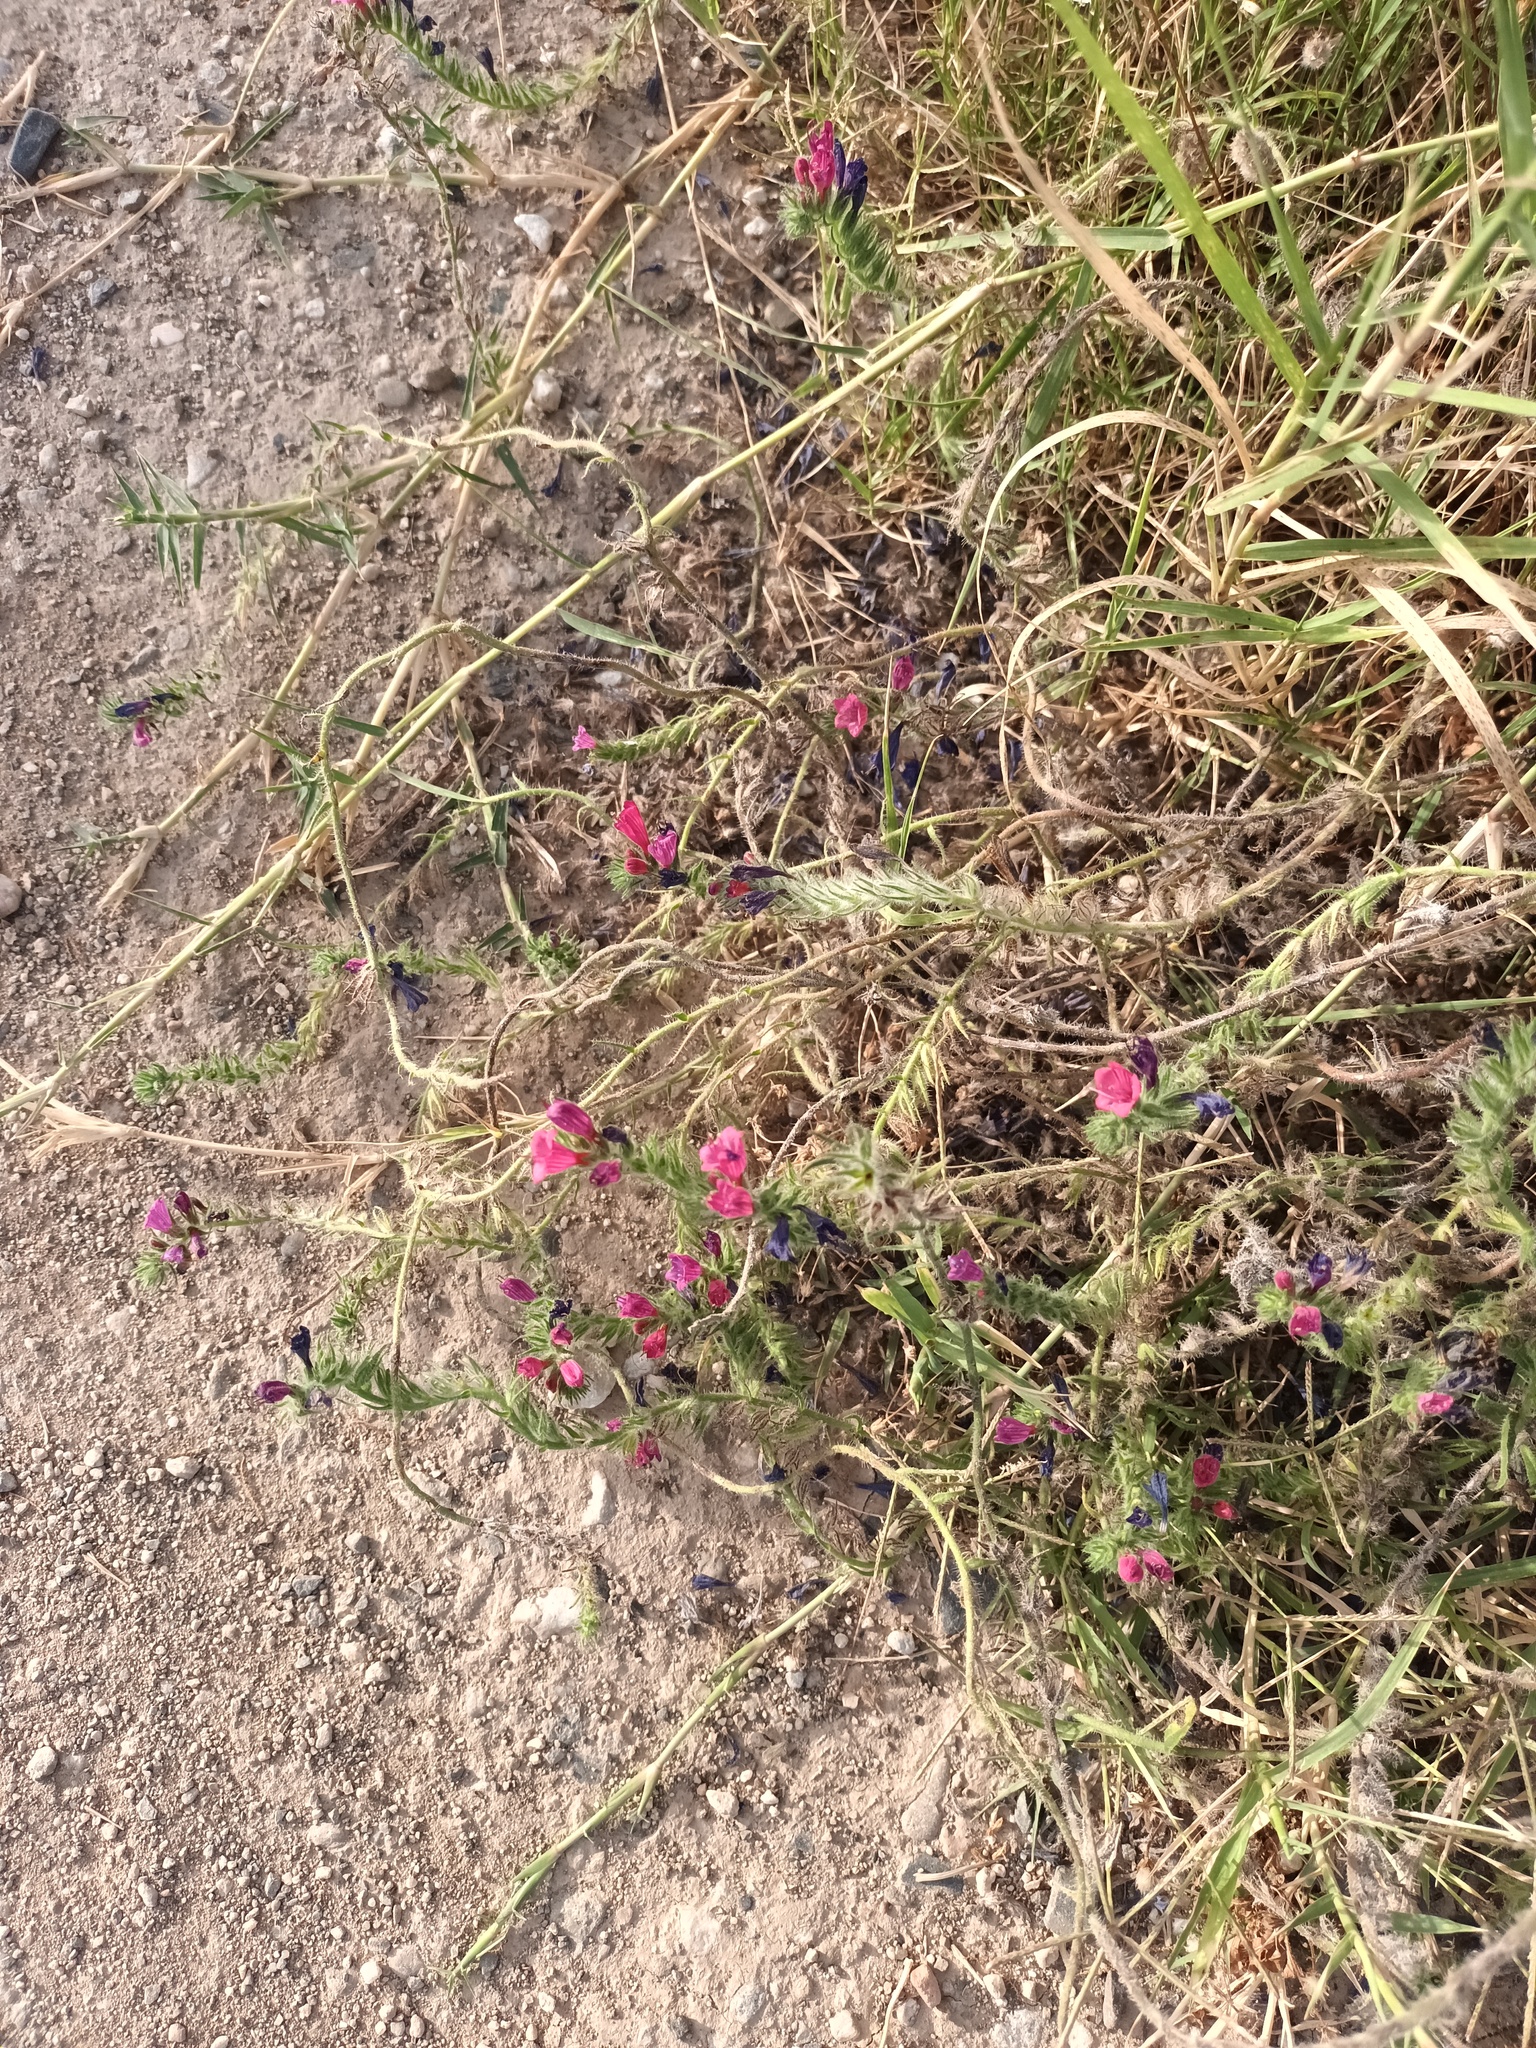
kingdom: Plantae
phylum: Tracheophyta
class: Magnoliopsida
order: Boraginales
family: Boraginaceae
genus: Echium
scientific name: Echium sabulicola
